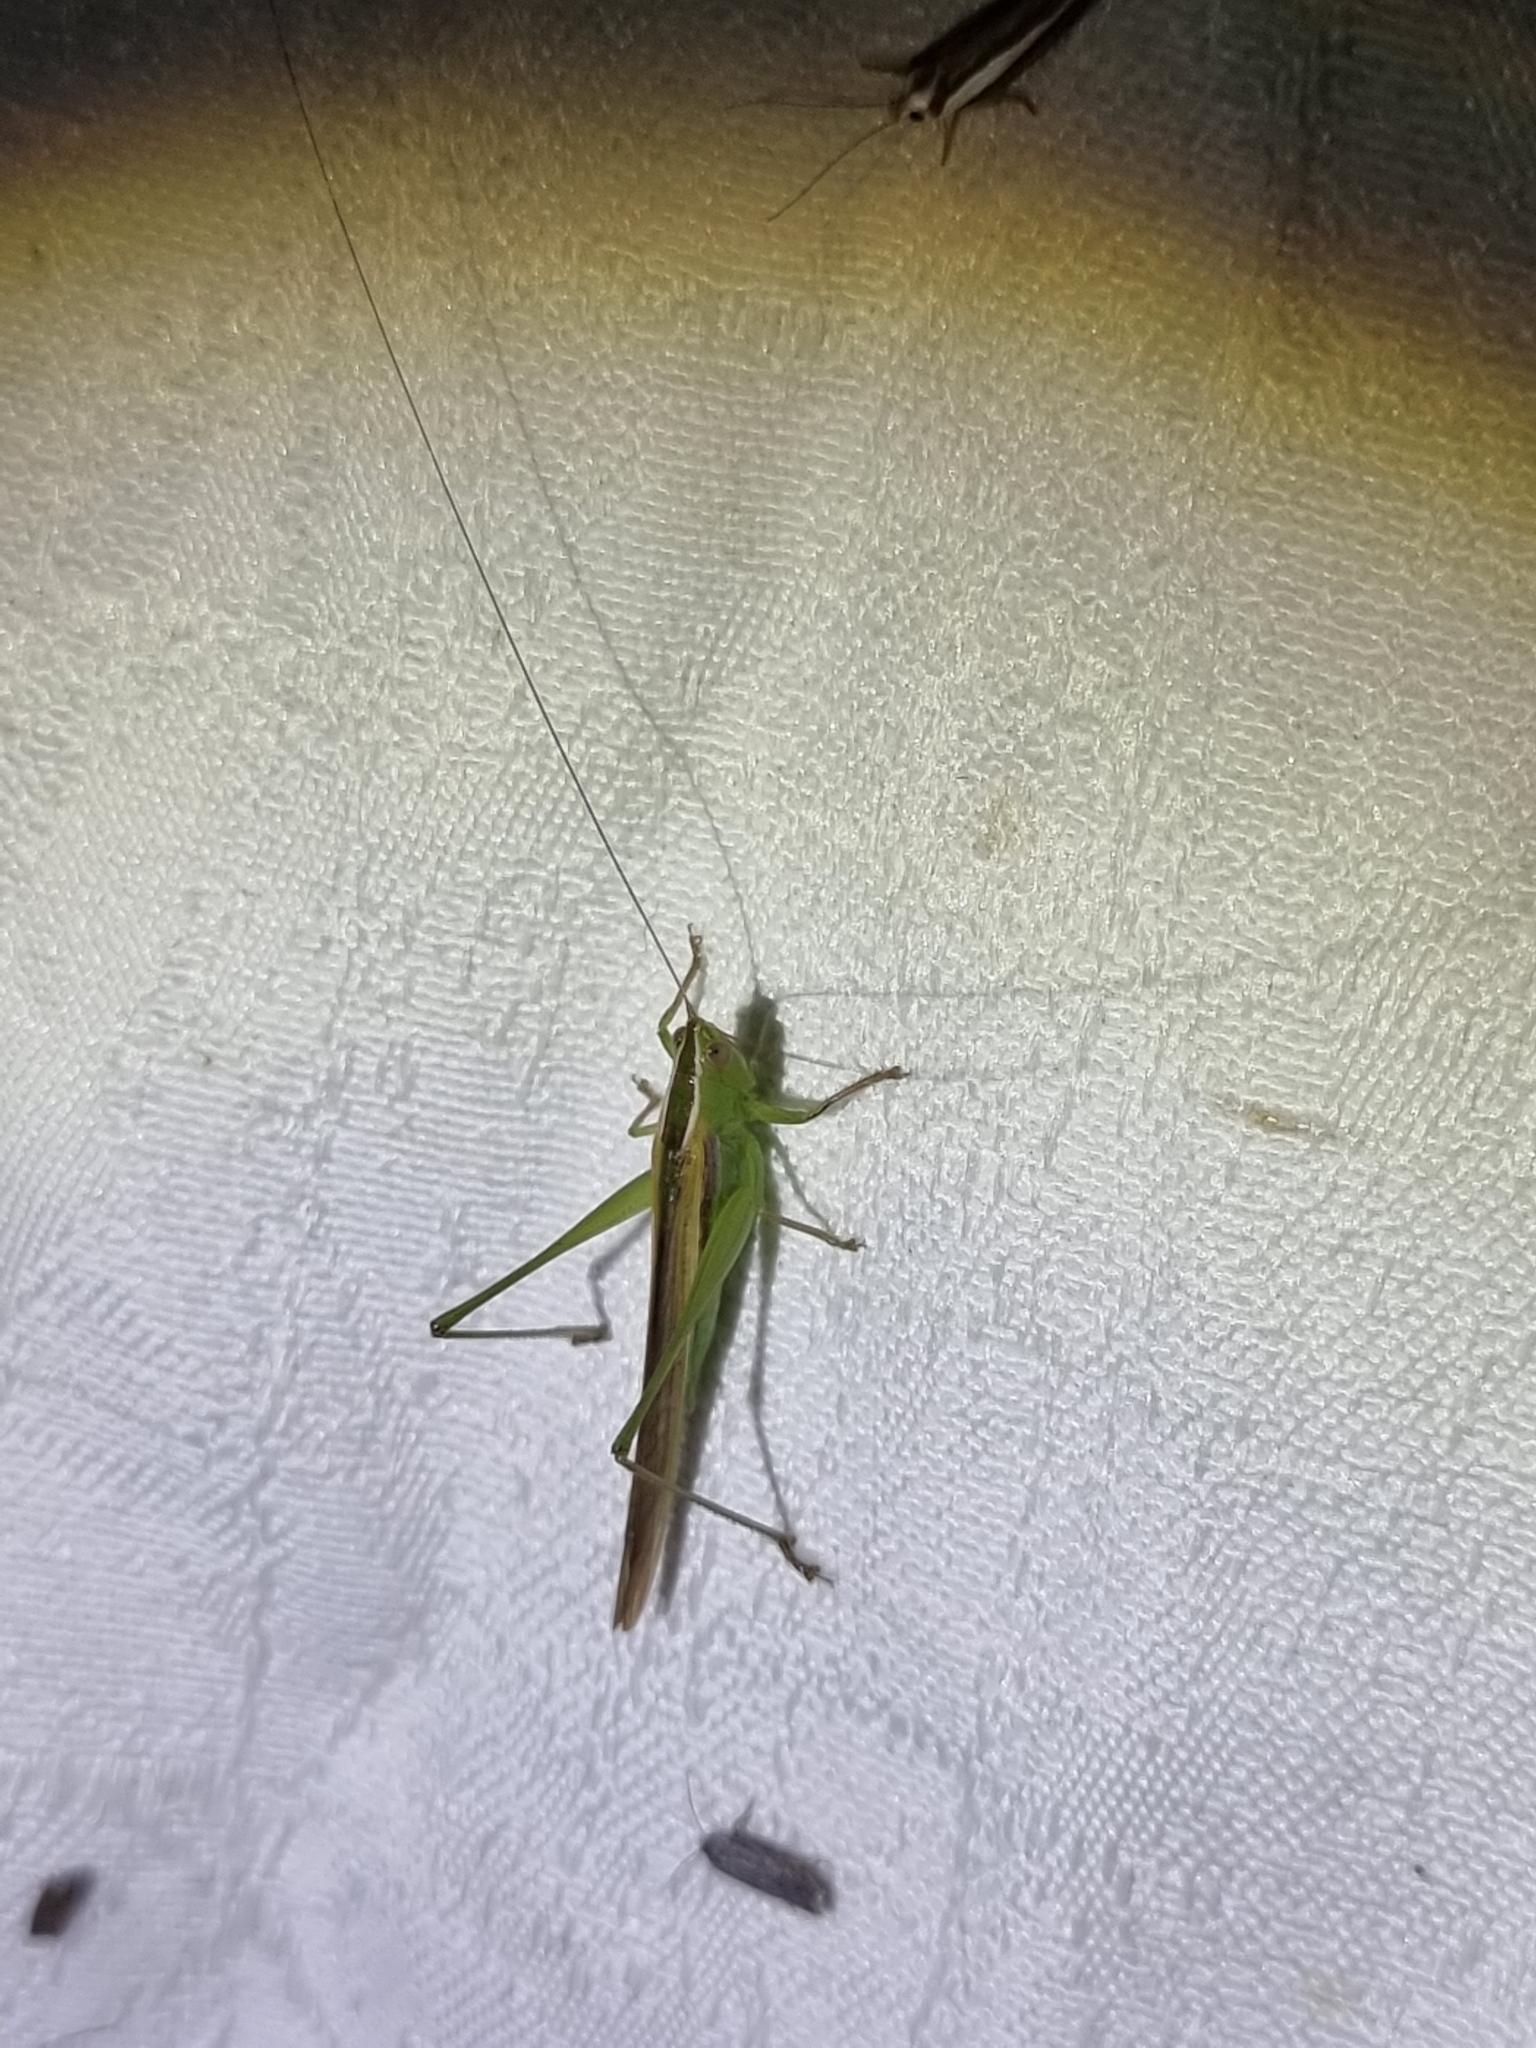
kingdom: Animalia
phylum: Arthropoda
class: Insecta
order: Orthoptera
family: Tettigoniidae
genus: Conocephalus
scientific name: Conocephalus upoluensis
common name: Upolu meadow katydid
